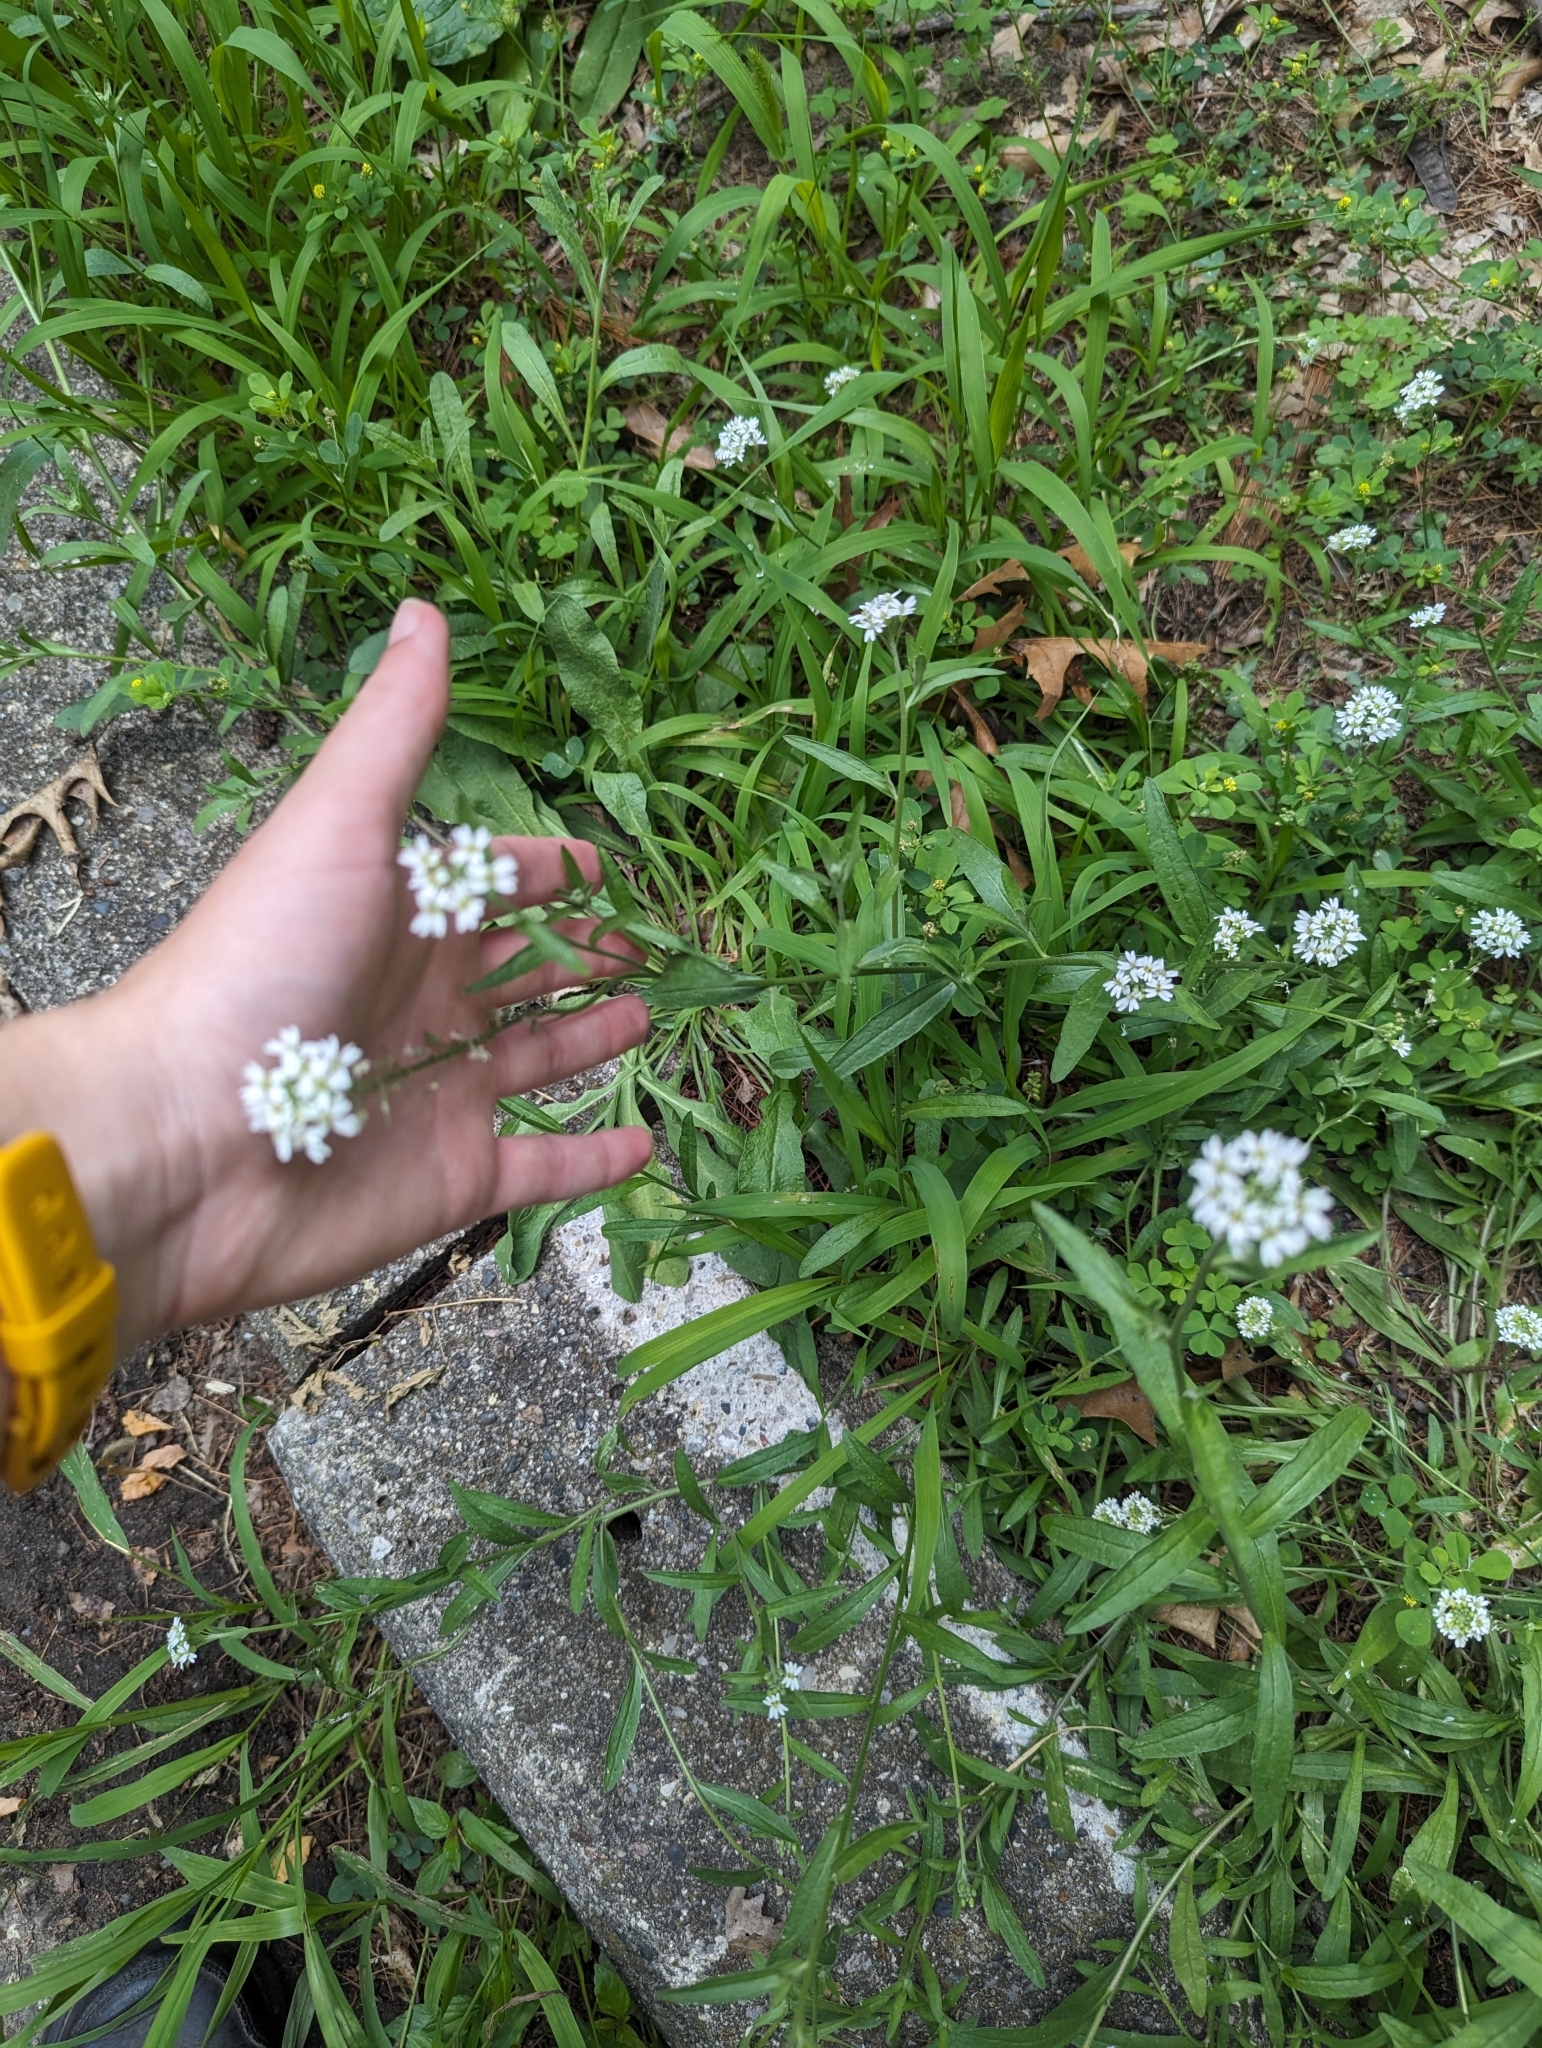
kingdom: Plantae
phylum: Tracheophyta
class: Magnoliopsida
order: Brassicales
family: Brassicaceae
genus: Berteroa
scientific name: Berteroa incana
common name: Hoary alison
